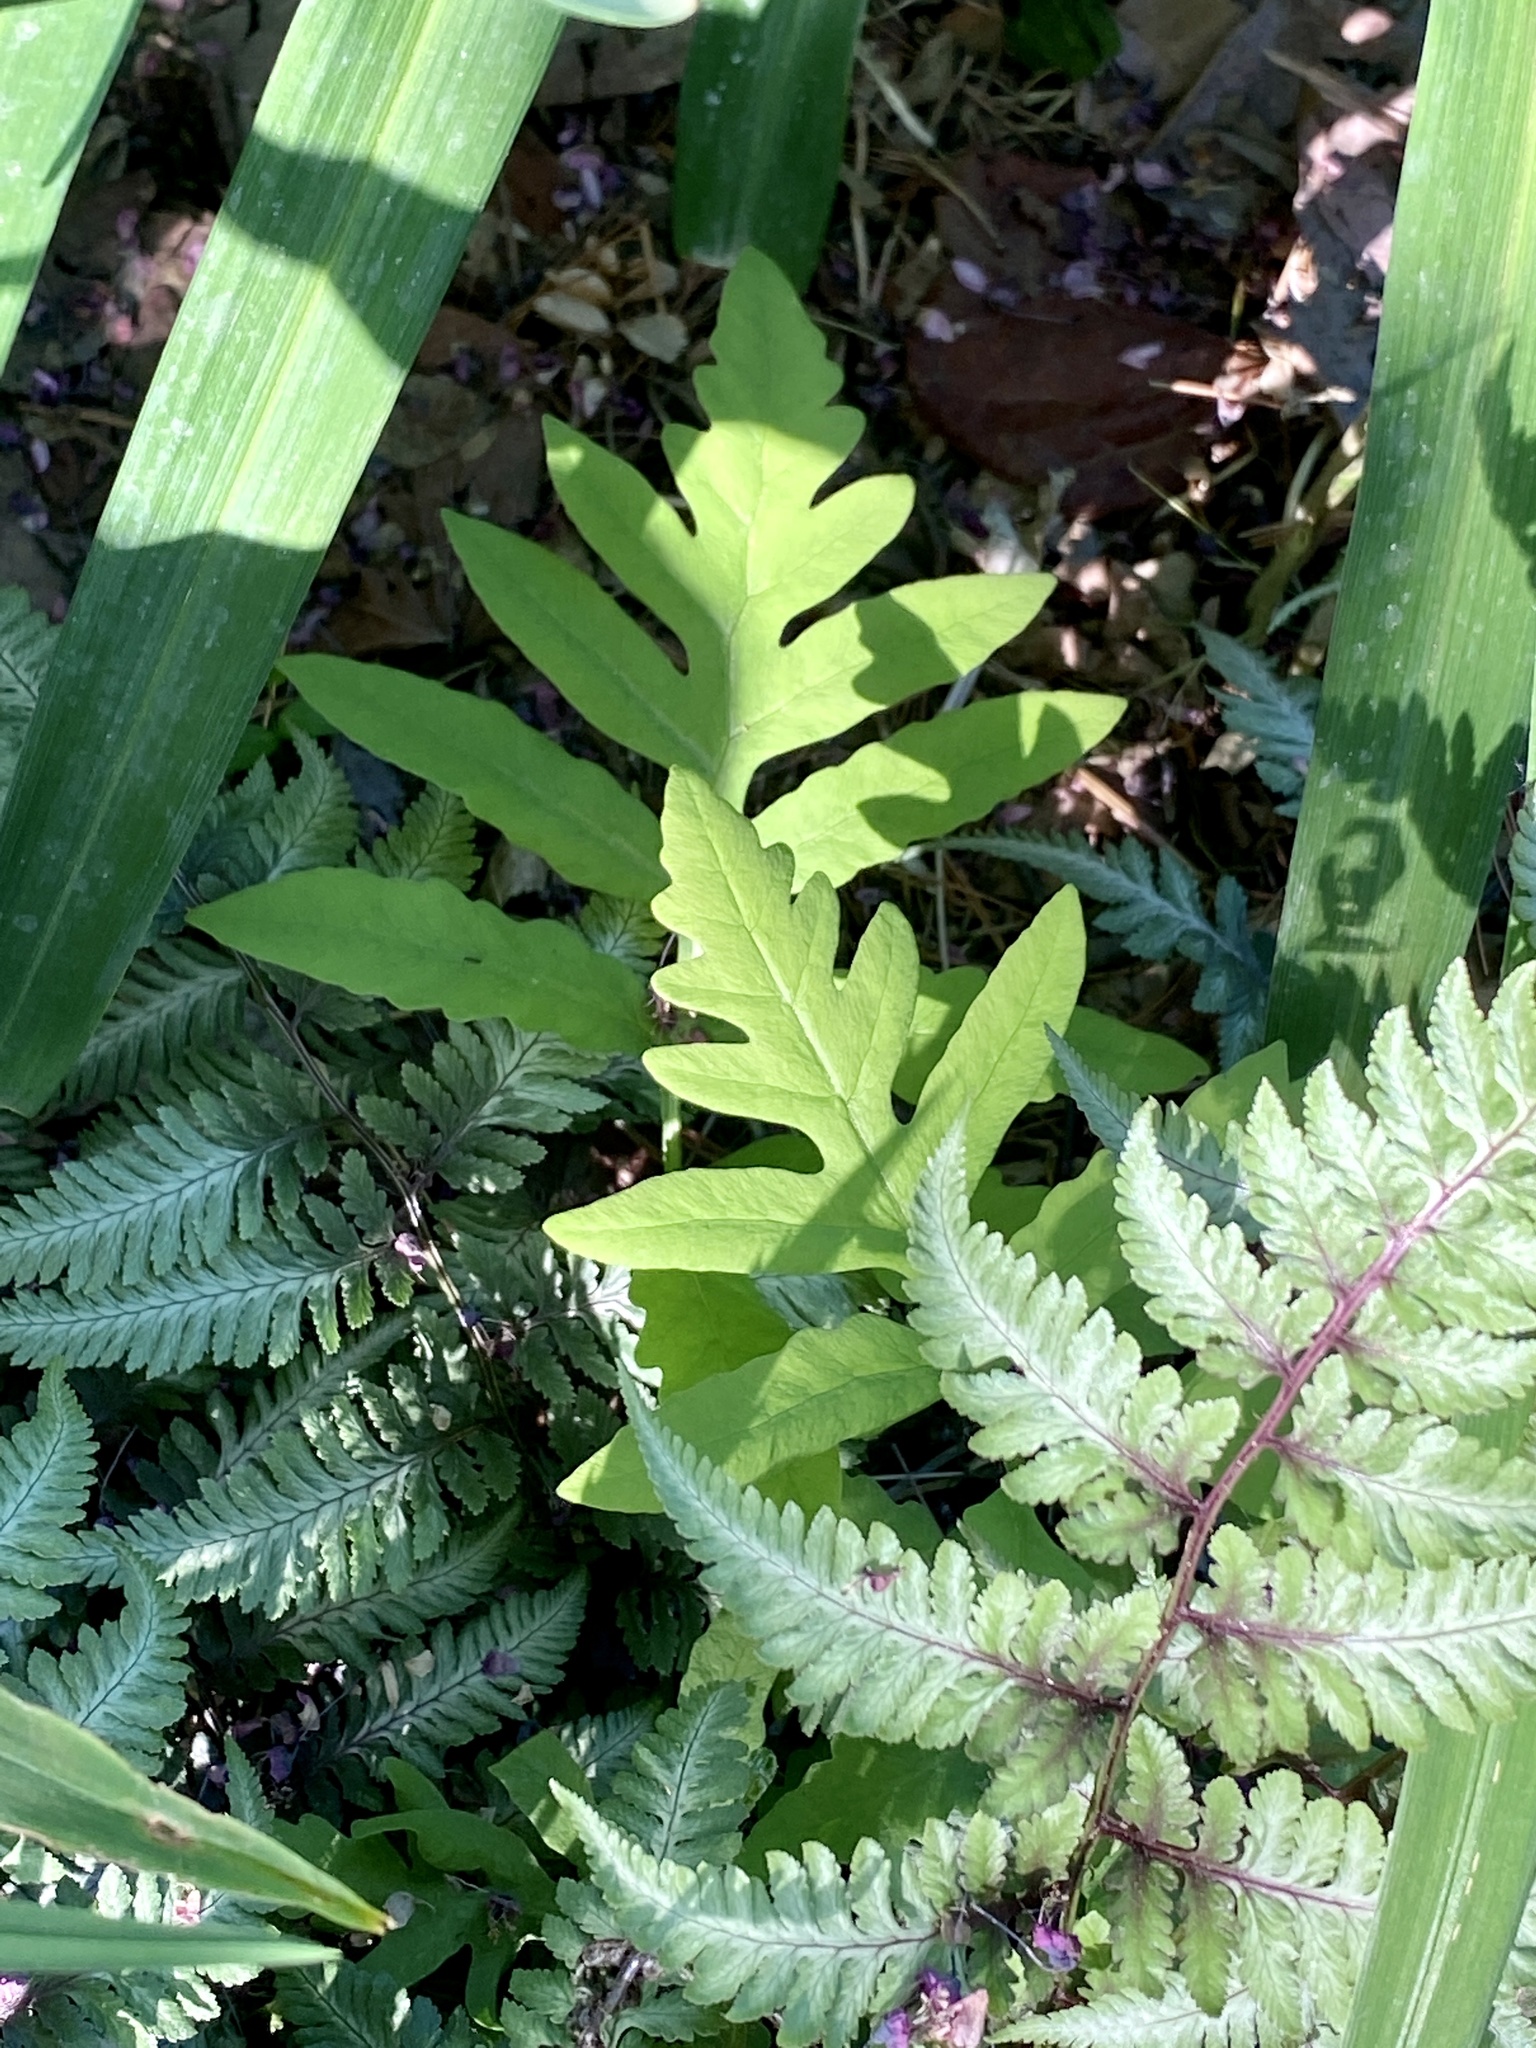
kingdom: Plantae
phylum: Tracheophyta
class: Polypodiopsida
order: Polypodiales
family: Onocleaceae
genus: Onoclea
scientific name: Onoclea sensibilis
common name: Sensitive fern
